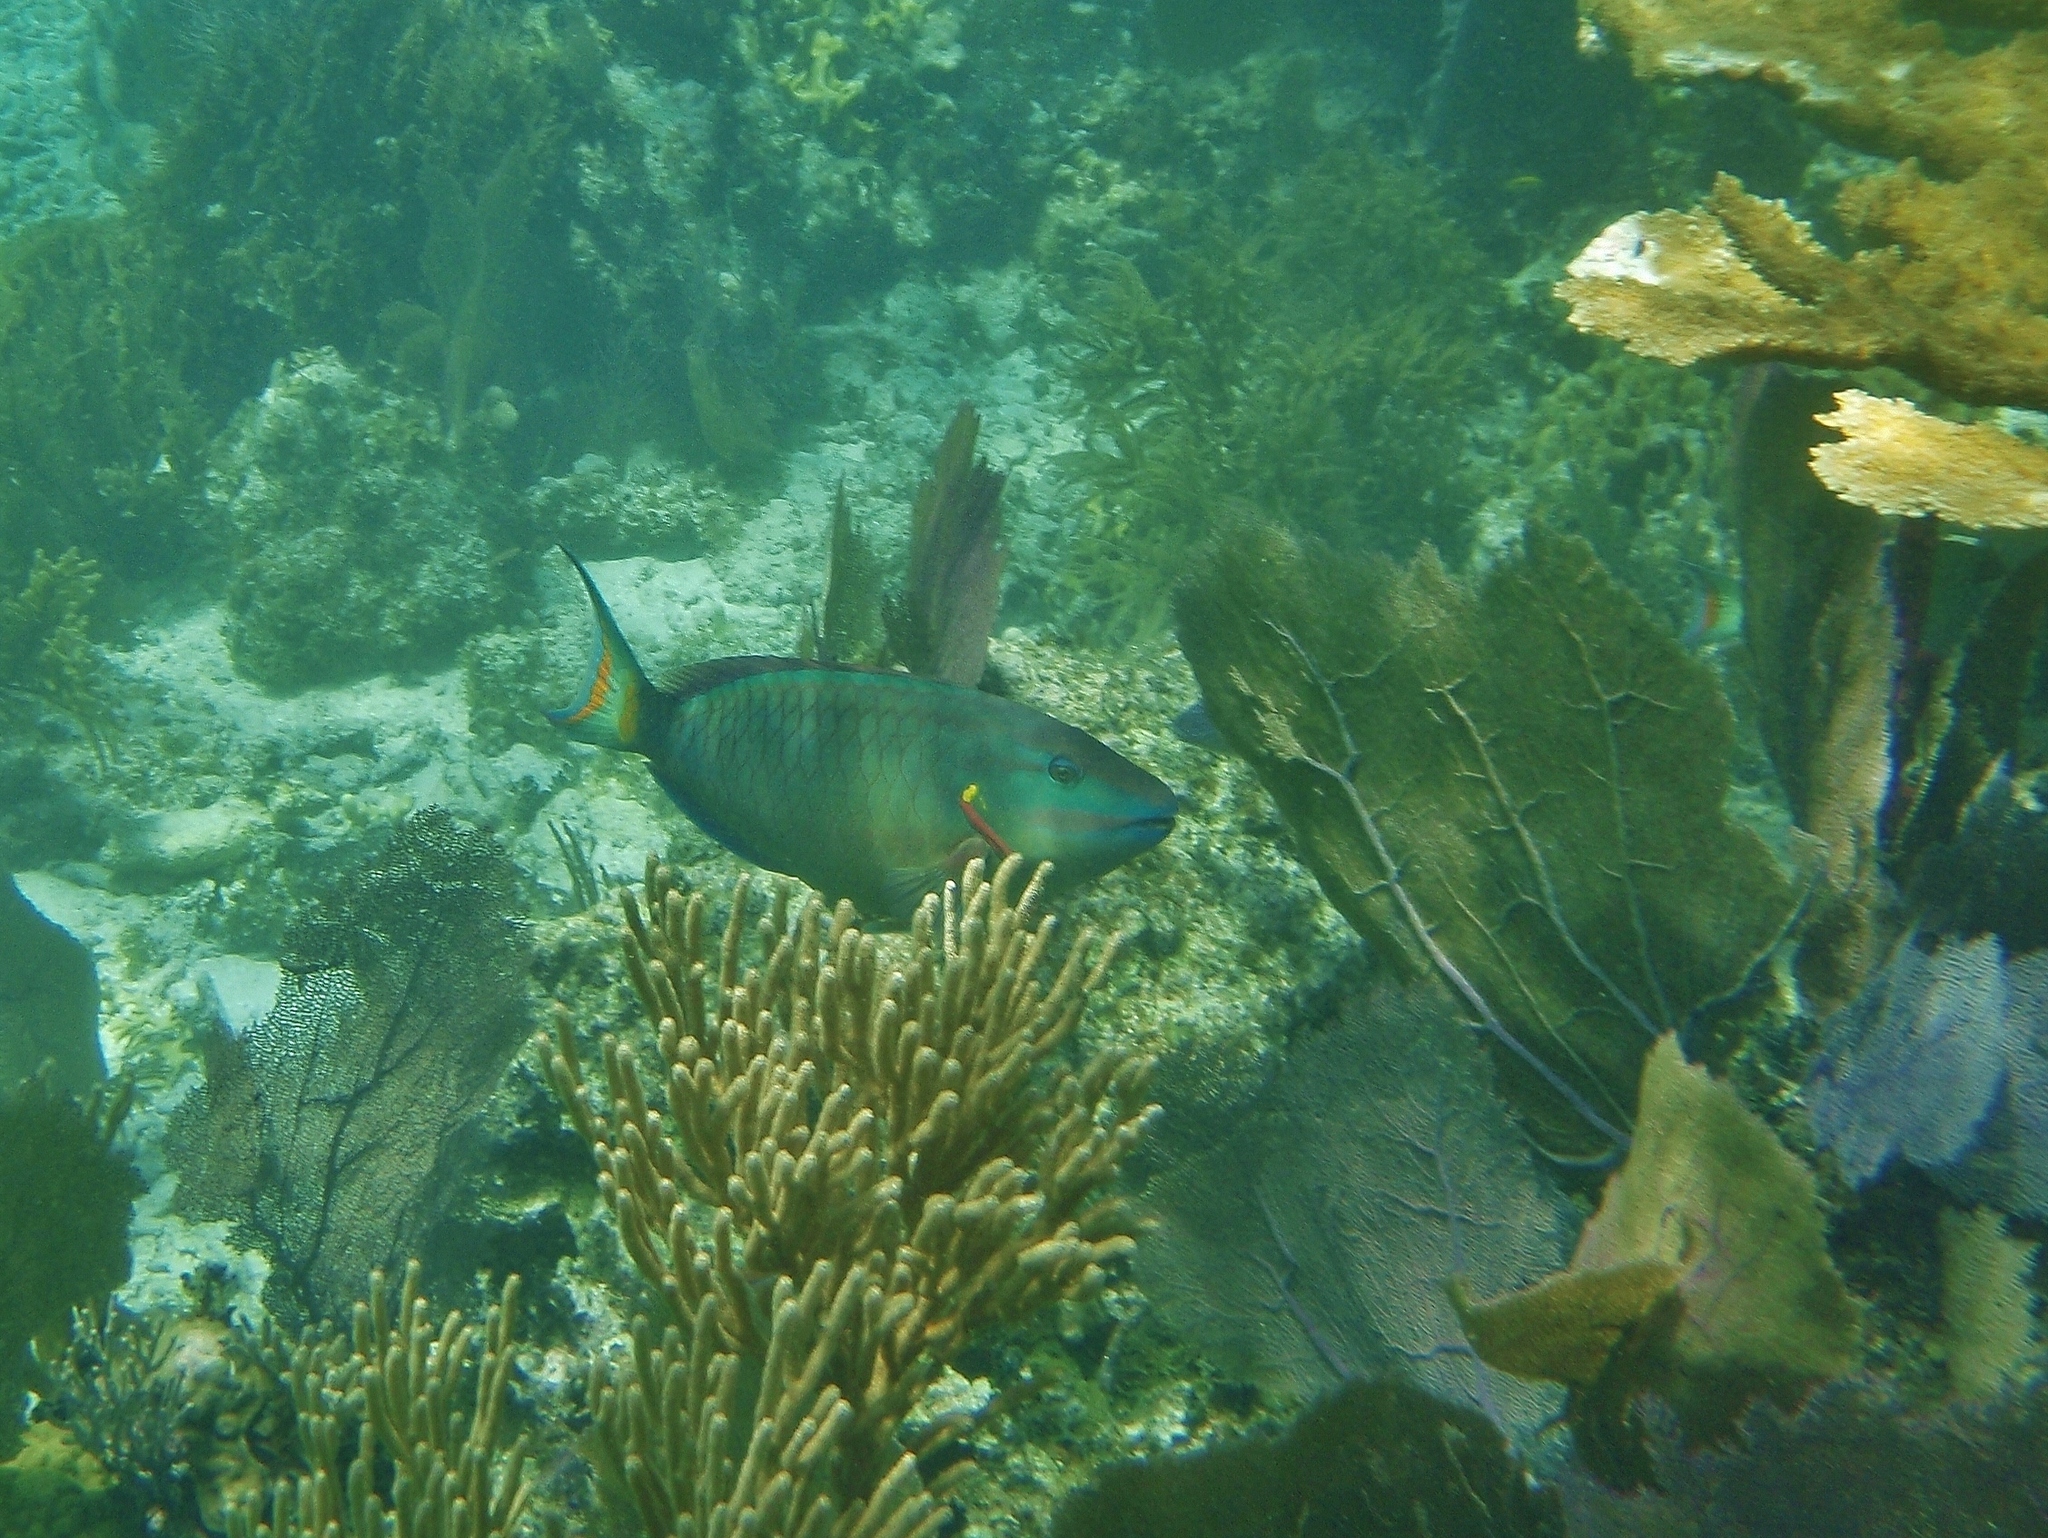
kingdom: Animalia
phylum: Chordata
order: Perciformes
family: Scaridae
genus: Sparisoma
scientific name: Sparisoma viride
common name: Stoplight parrotfish
